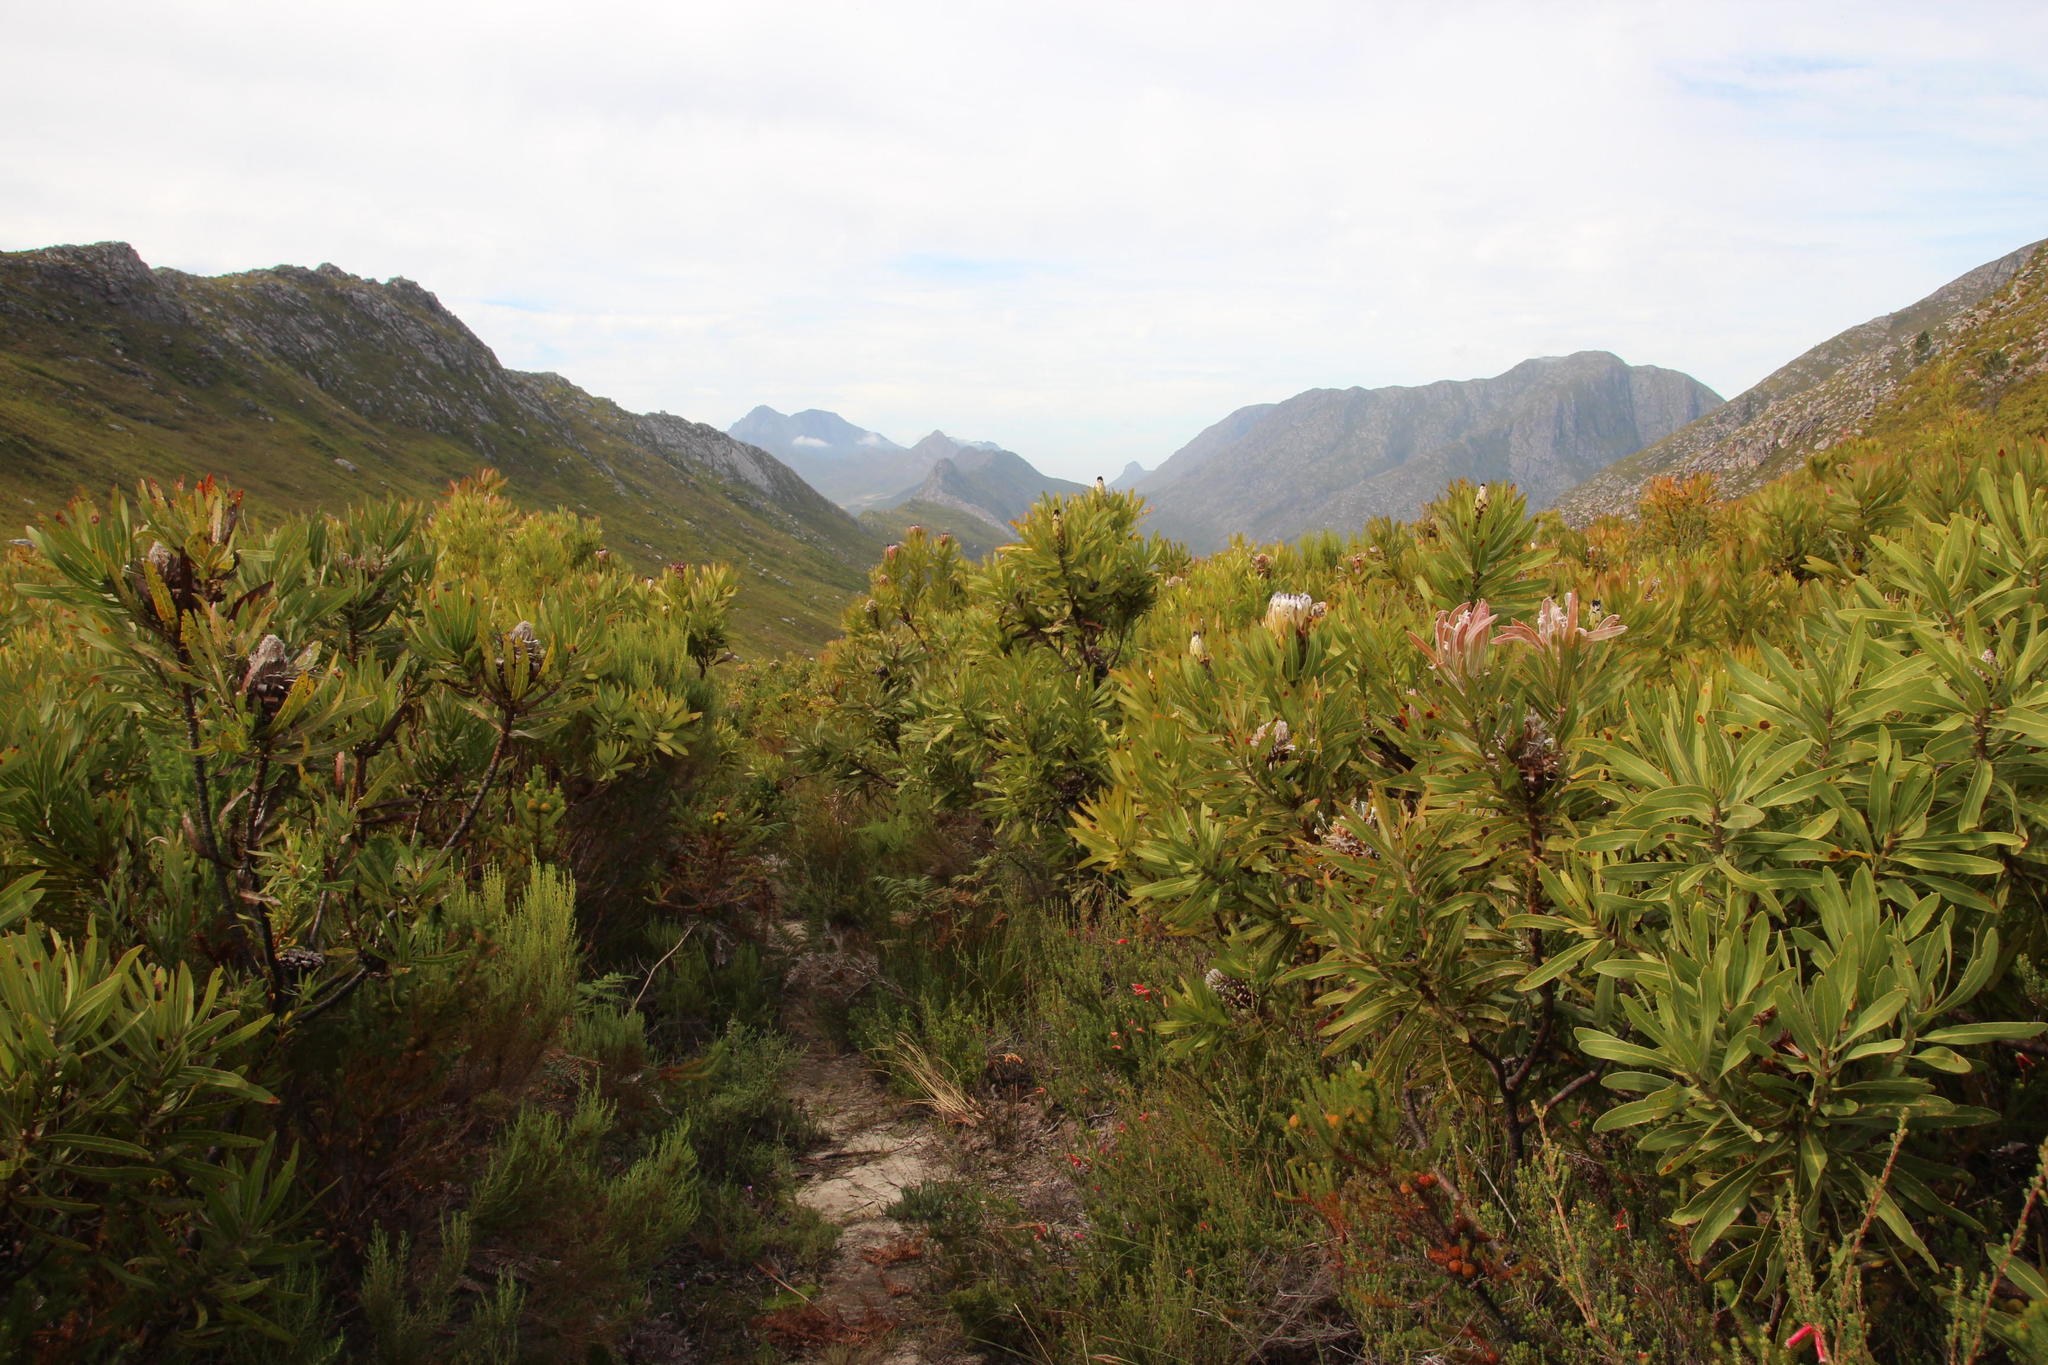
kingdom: Plantae
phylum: Tracheophyta
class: Magnoliopsida
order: Proteales
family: Proteaceae
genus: Protea
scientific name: Protea neriifolia
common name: Blue sugarbush
